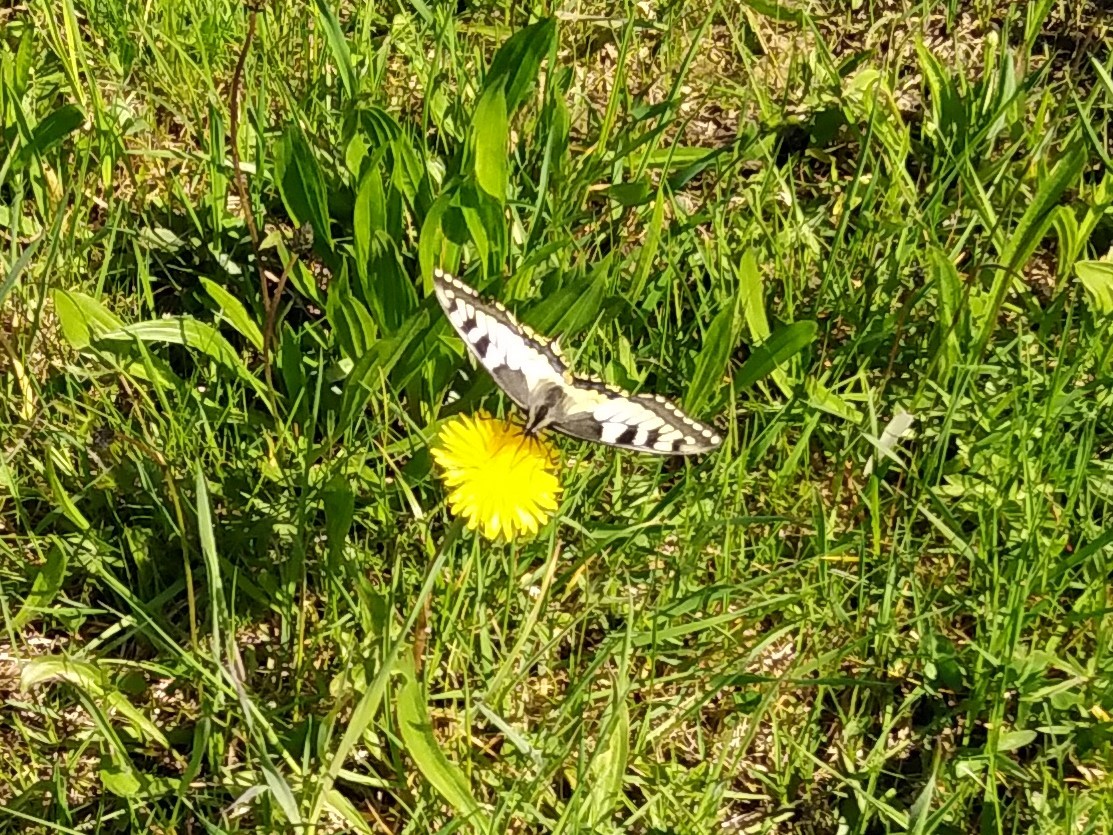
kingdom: Animalia
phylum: Arthropoda
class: Insecta
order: Lepidoptera
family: Papilionidae
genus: Papilio
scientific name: Papilio machaon
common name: Swallowtail
